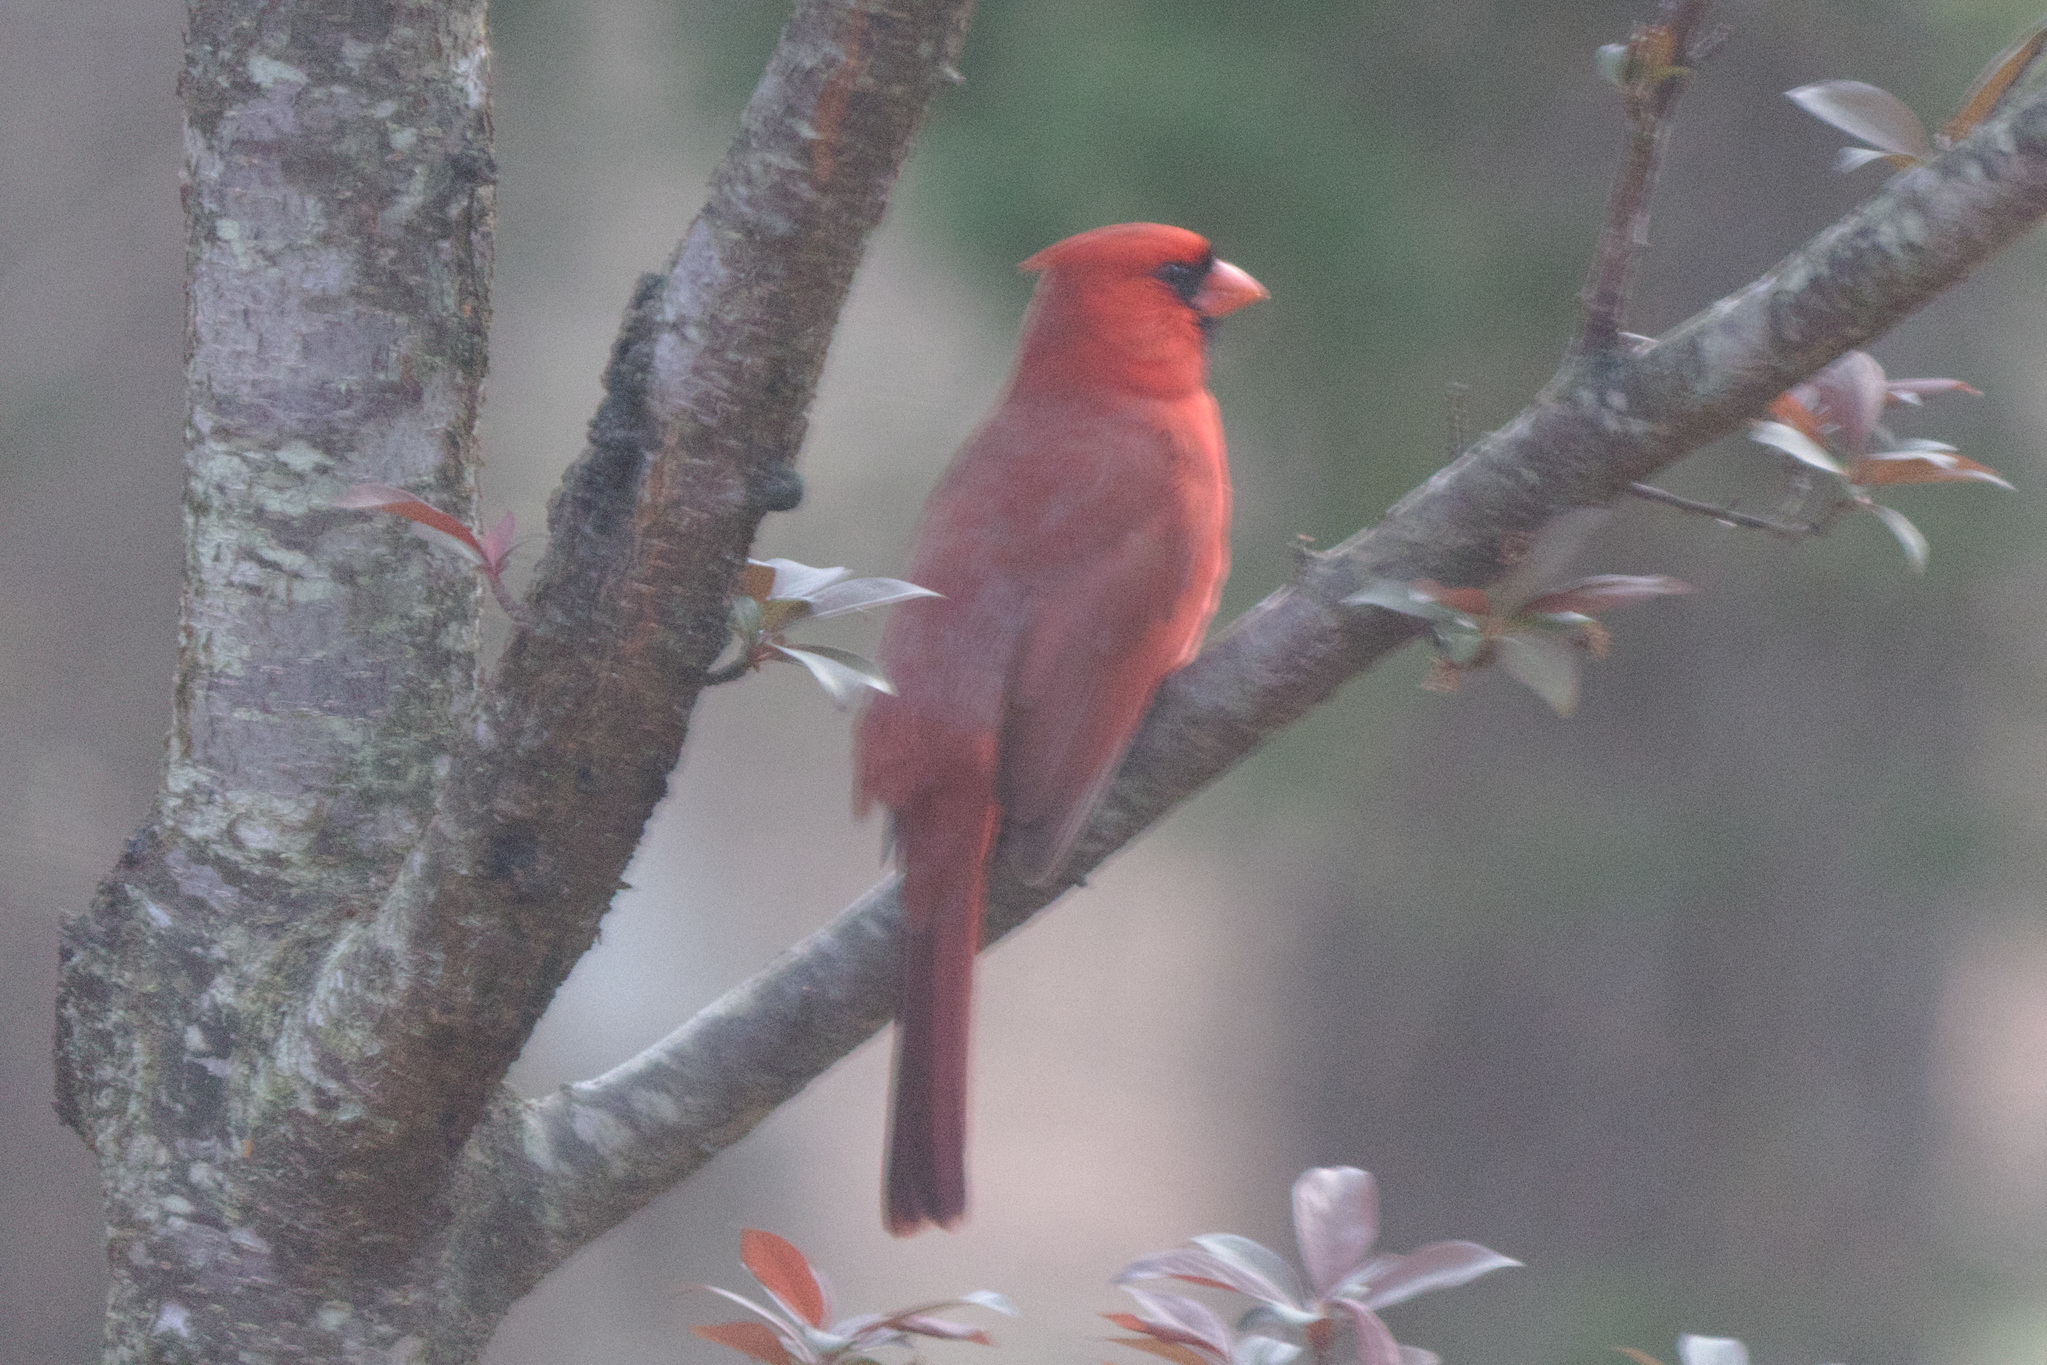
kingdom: Animalia
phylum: Chordata
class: Aves
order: Passeriformes
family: Cardinalidae
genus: Cardinalis
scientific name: Cardinalis cardinalis
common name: Northern cardinal
